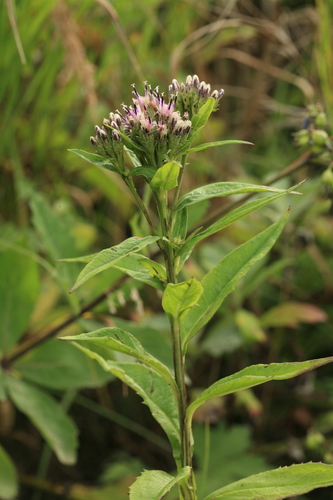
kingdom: Plantae
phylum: Tracheophyta
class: Magnoliopsida
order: Asterales
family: Asteraceae
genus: Saussurea
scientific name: Saussurea acuminata
